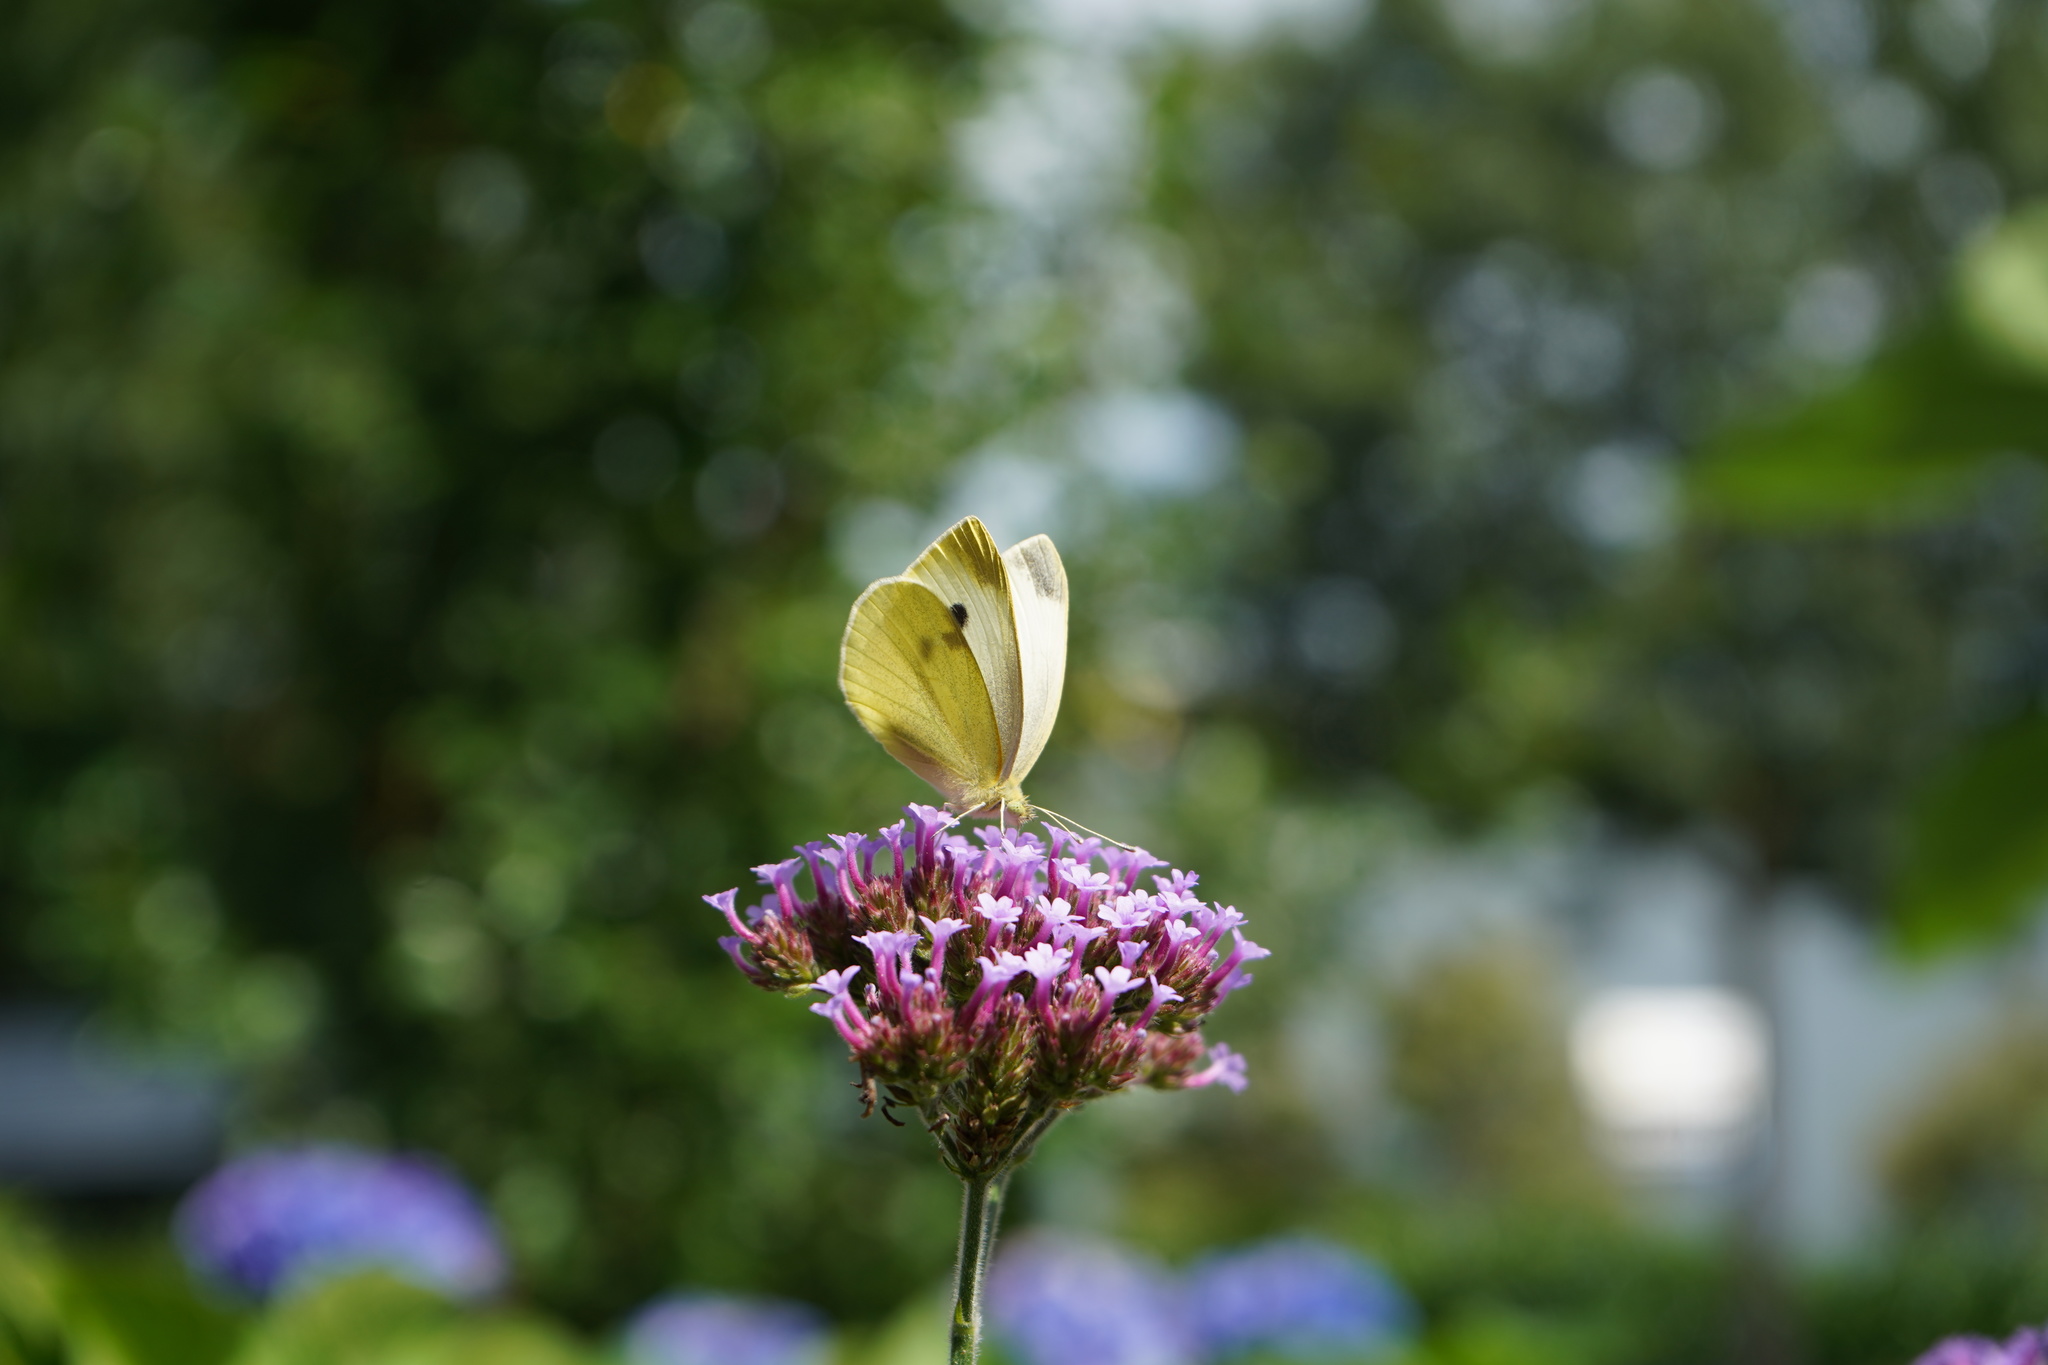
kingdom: Animalia
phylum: Arthropoda
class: Insecta
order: Lepidoptera
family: Pieridae
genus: Pieris
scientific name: Pieris rapae
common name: Small white
